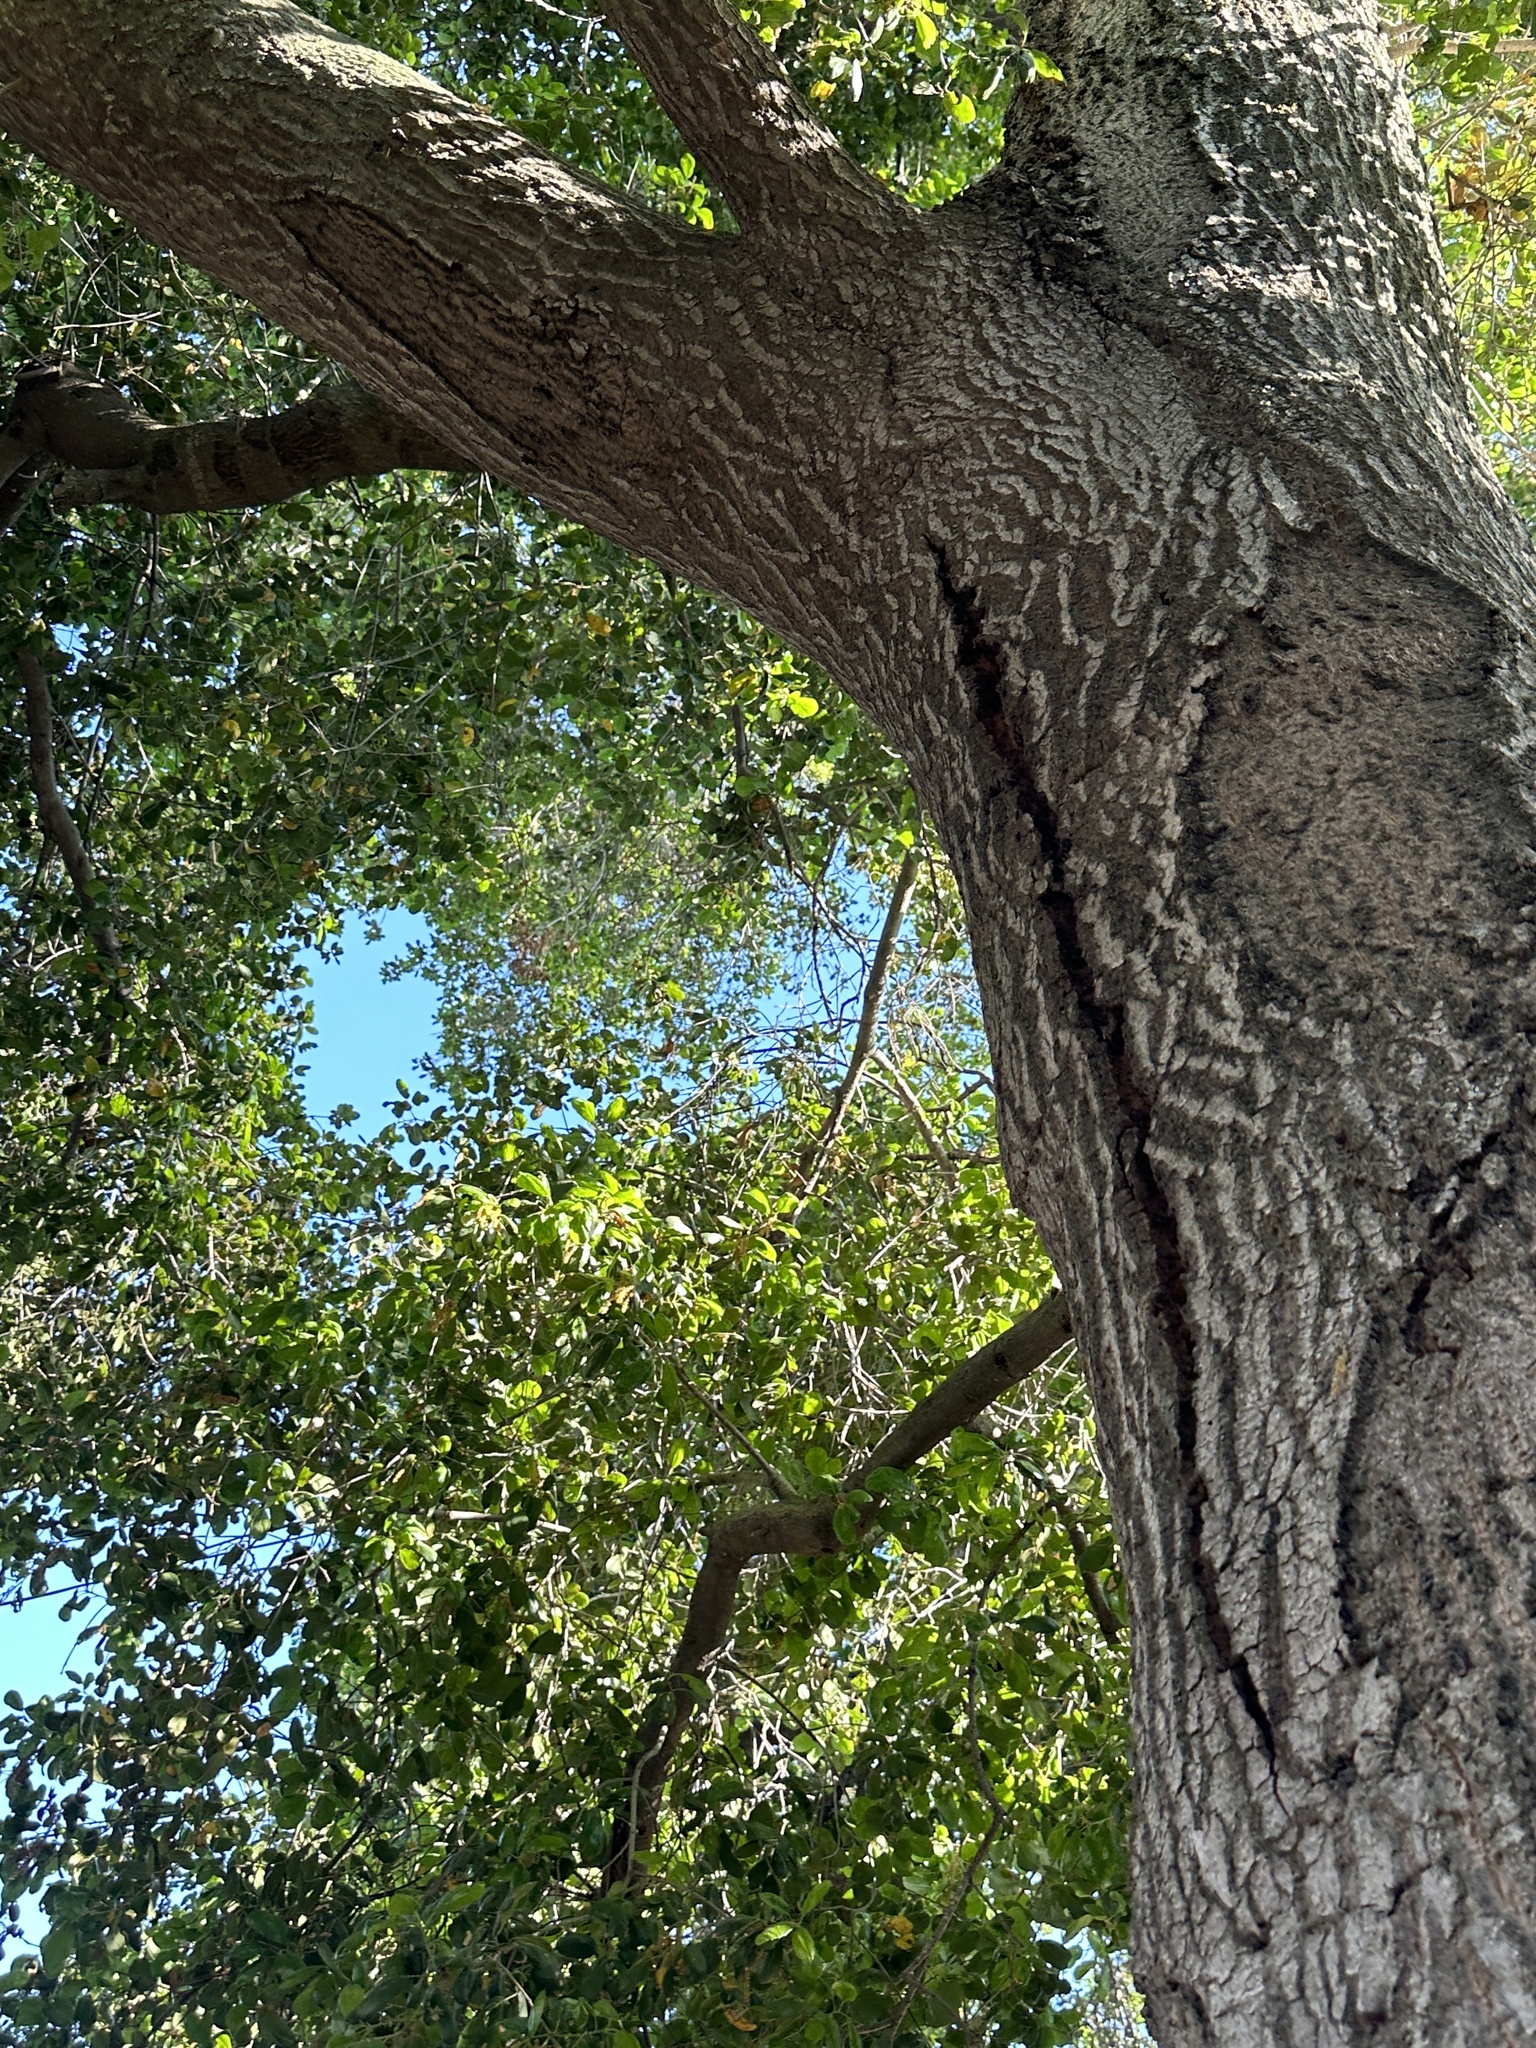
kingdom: Plantae
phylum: Tracheophyta
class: Magnoliopsida
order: Fagales
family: Fagaceae
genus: Quercus
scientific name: Quercus agrifolia
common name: California live oak
